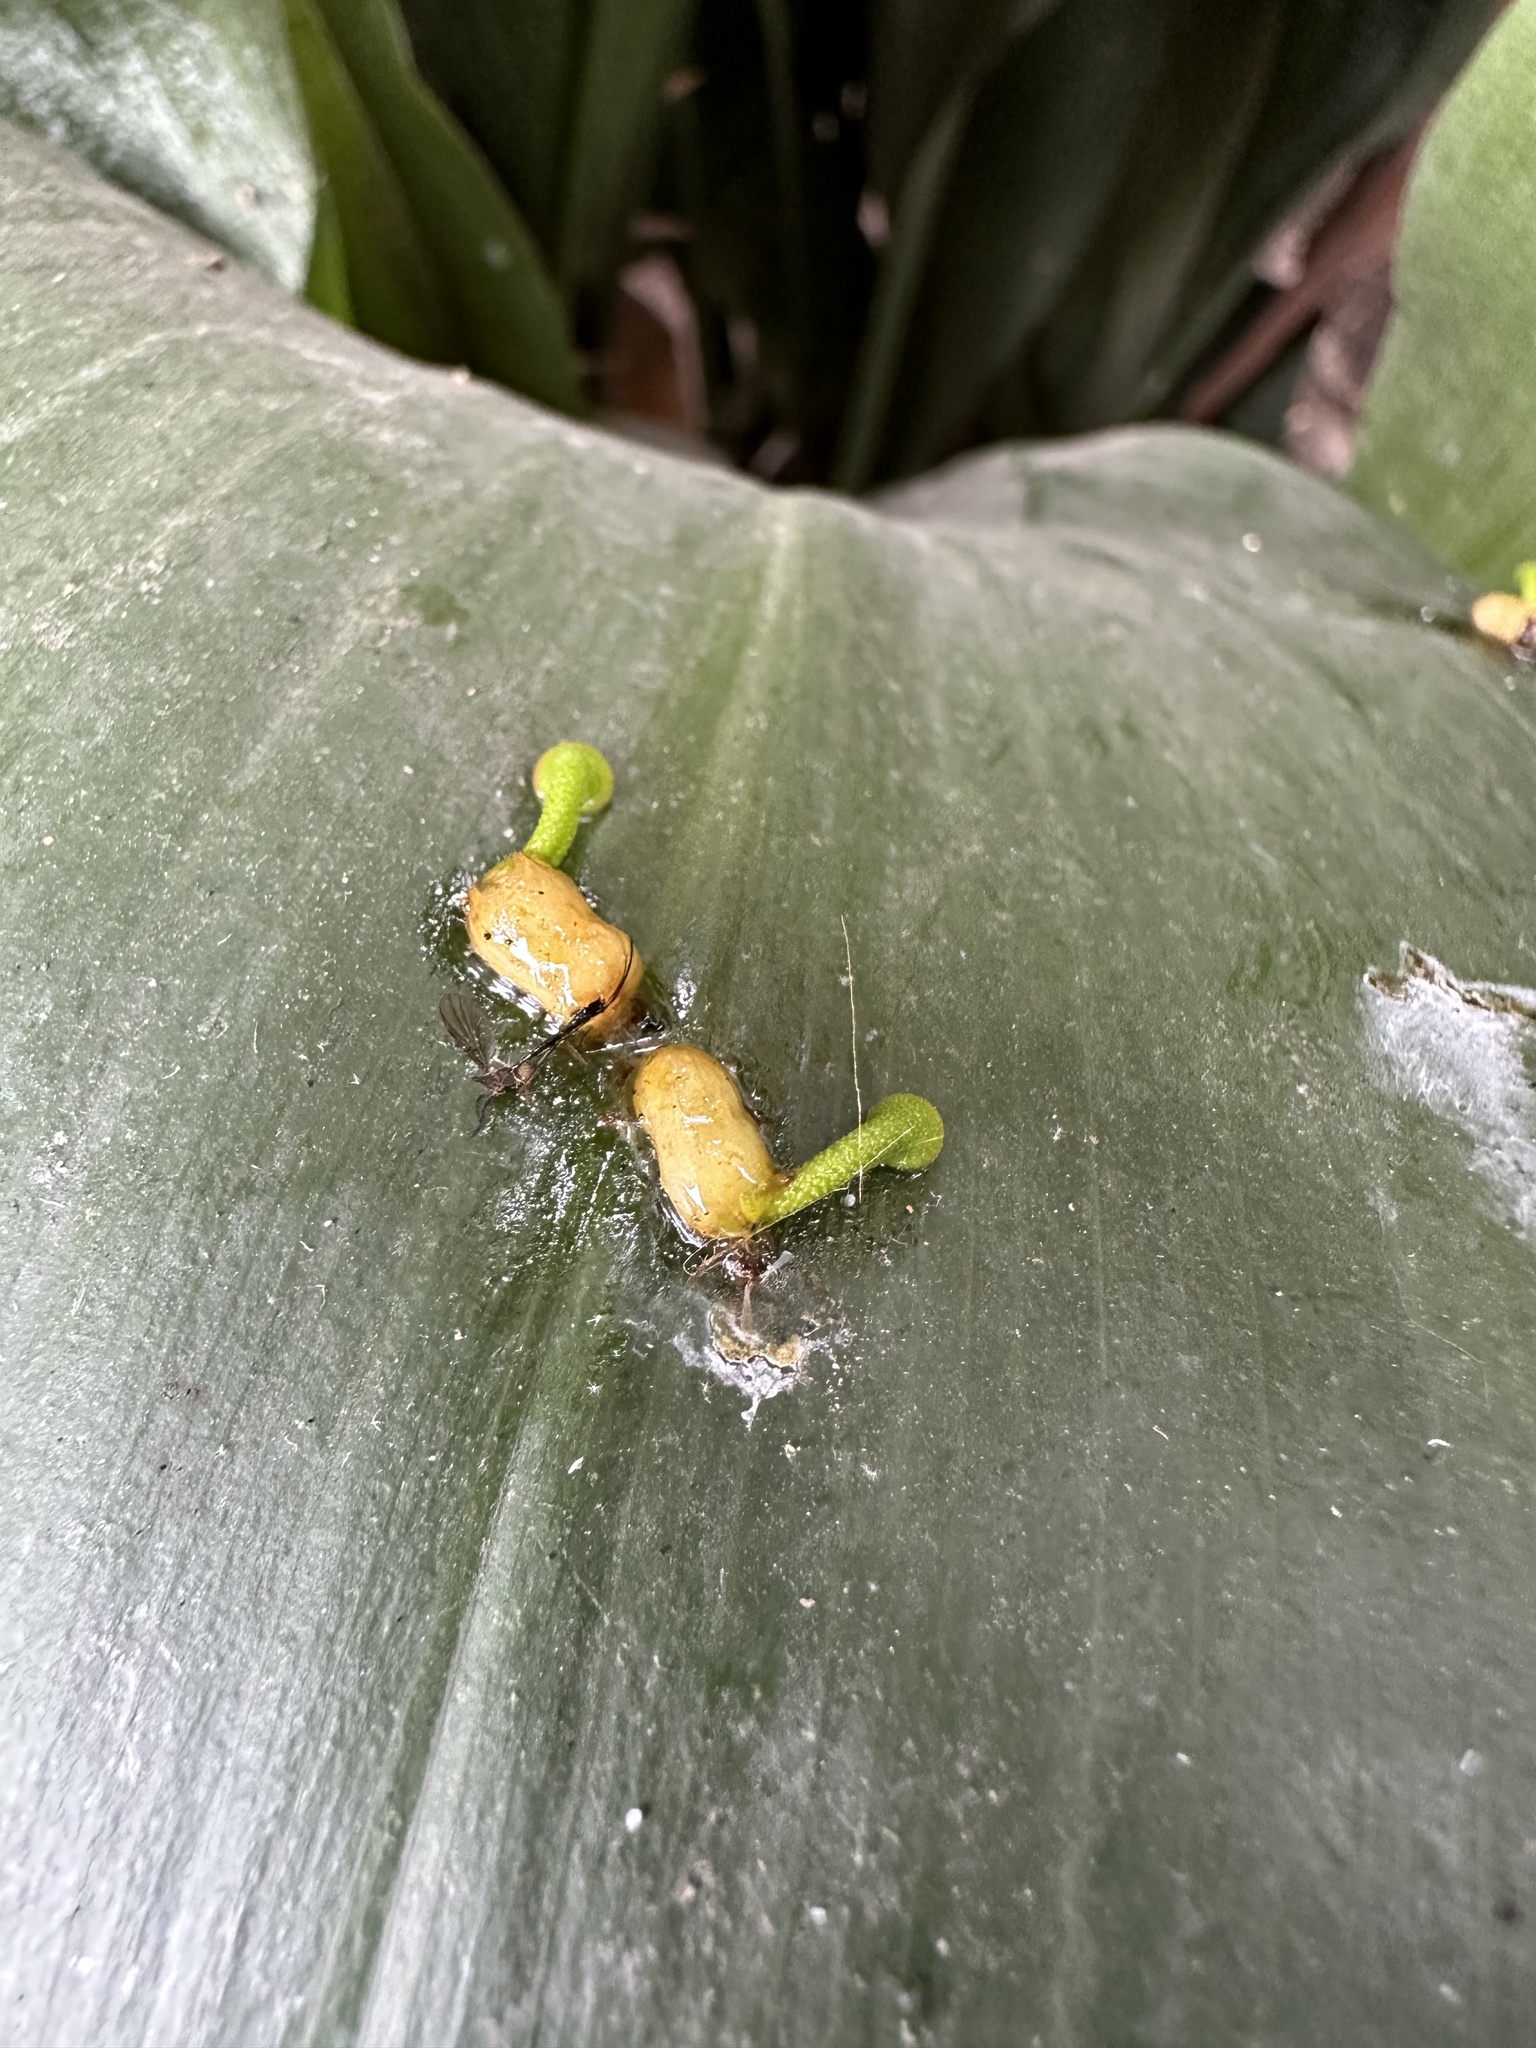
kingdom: Plantae
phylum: Tracheophyta
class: Magnoliopsida
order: Santalales
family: Loranthaceae
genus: Tristerix
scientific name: Tristerix corymbosus
